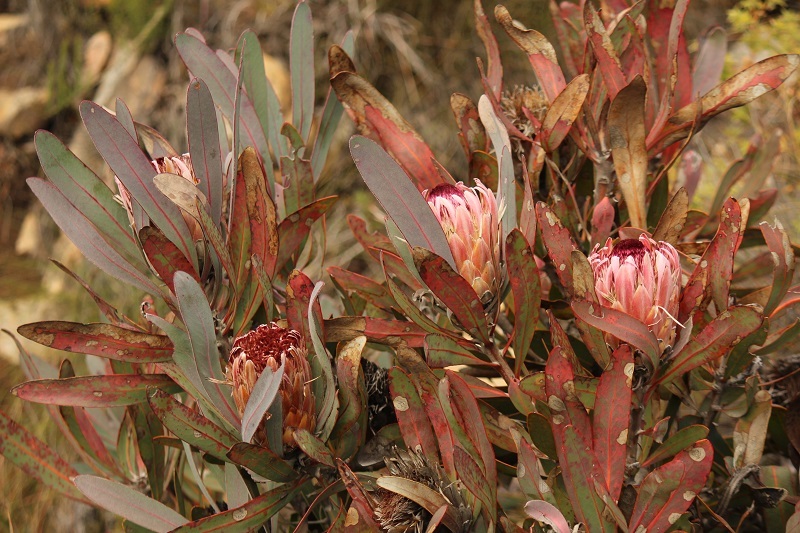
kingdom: Plantae
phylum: Tracheophyta
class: Magnoliopsida
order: Proteales
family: Proteaceae
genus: Protea
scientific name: Protea lorifolia
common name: Strap-leaved protea
